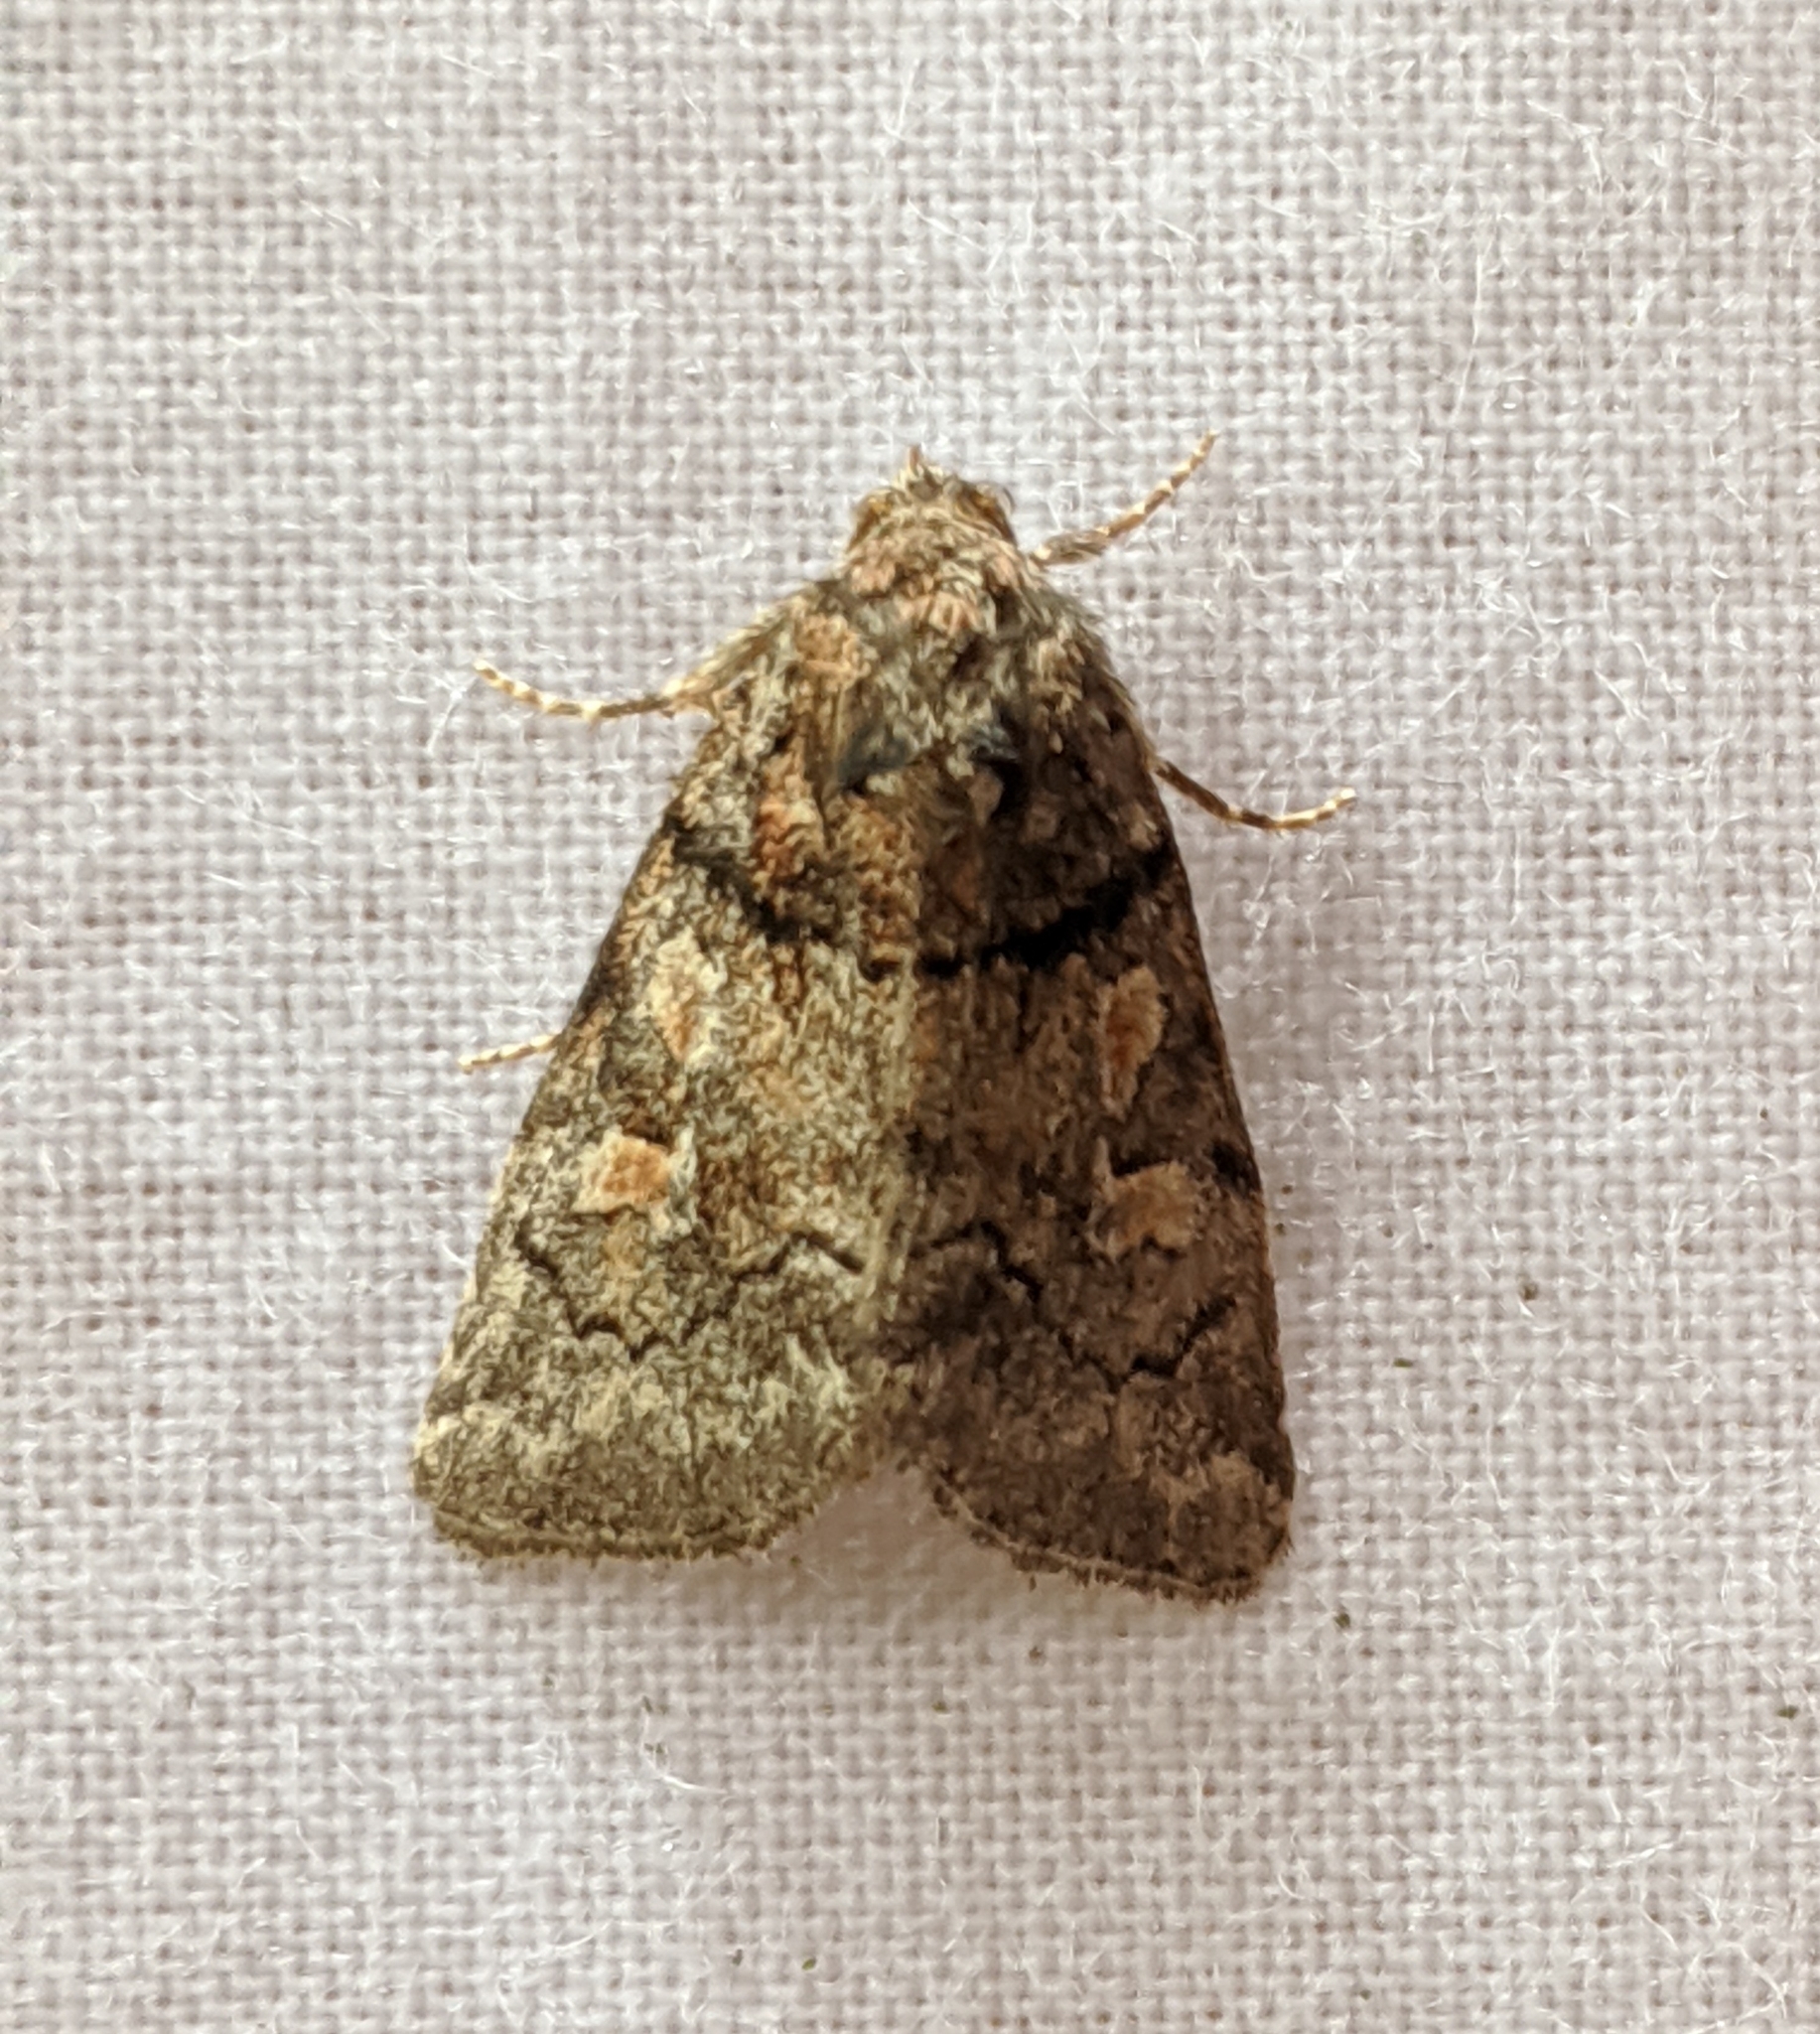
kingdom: Animalia
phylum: Arthropoda
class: Insecta
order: Lepidoptera
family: Noctuidae
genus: Cosmia
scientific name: Cosmia praeacuta
